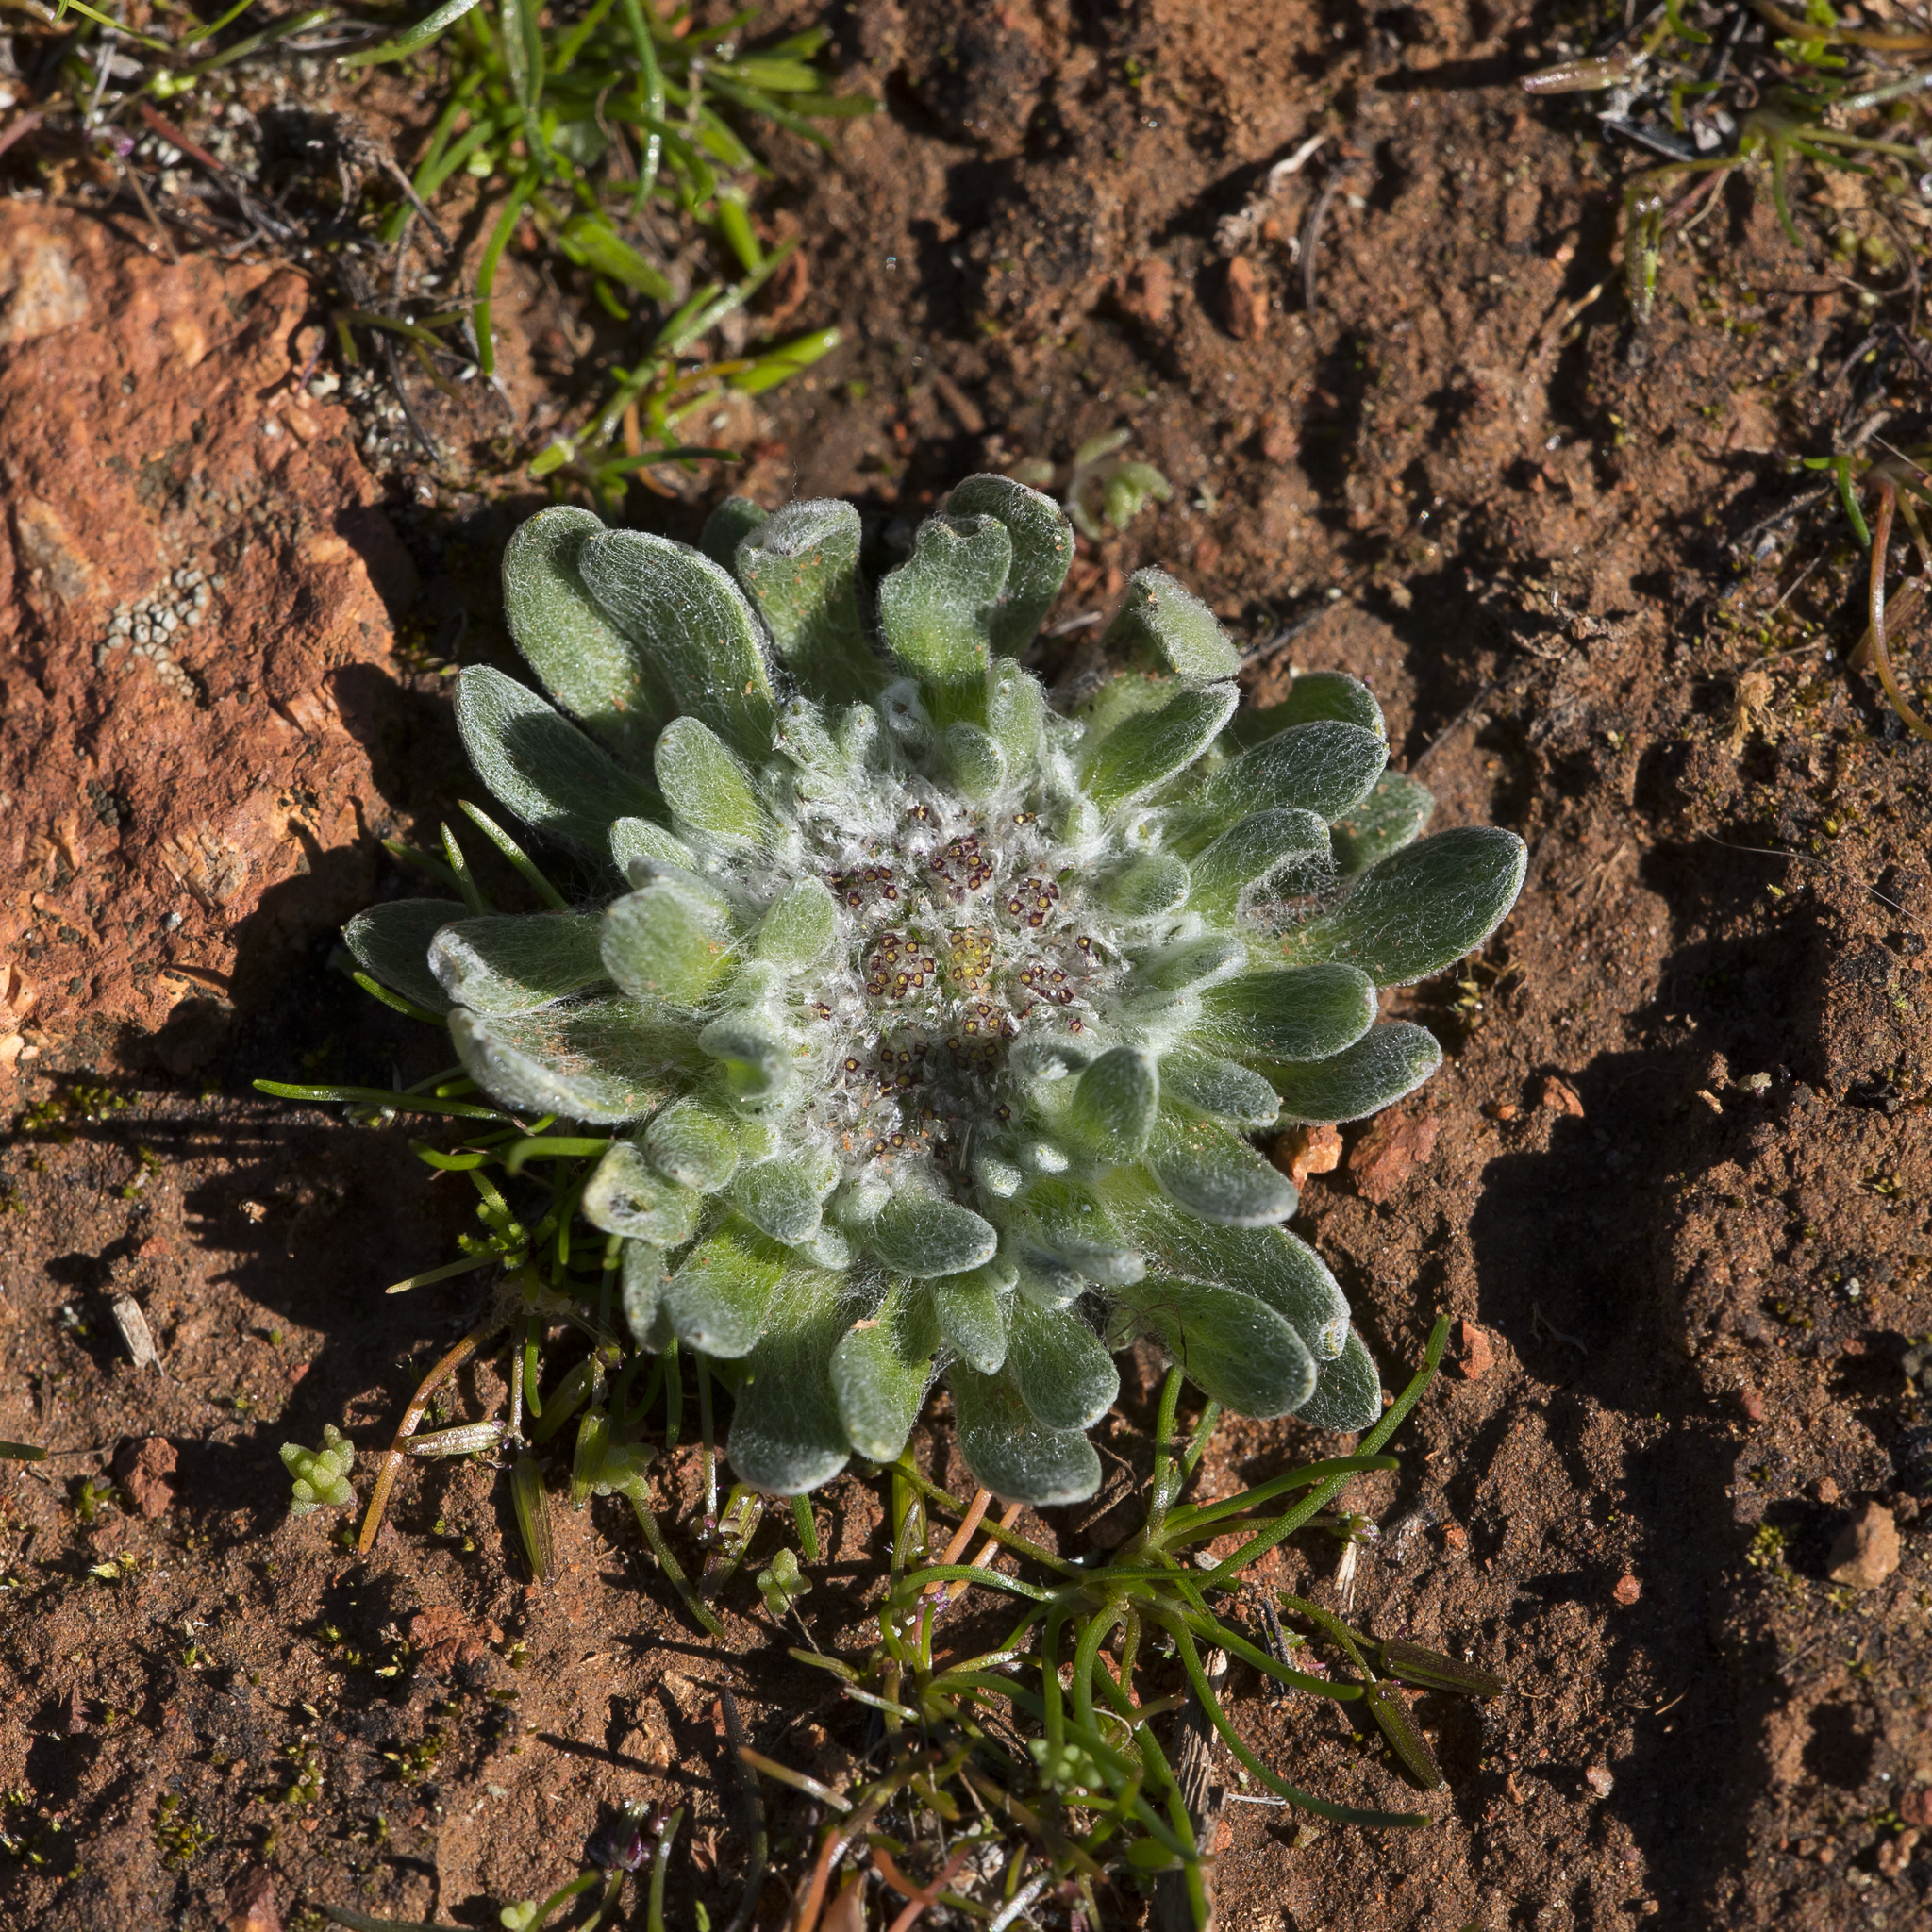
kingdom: Plantae
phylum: Tracheophyta
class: Magnoliopsida
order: Asterales
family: Asteraceae
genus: Chthonocephalus
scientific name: Chthonocephalus pseudevax
